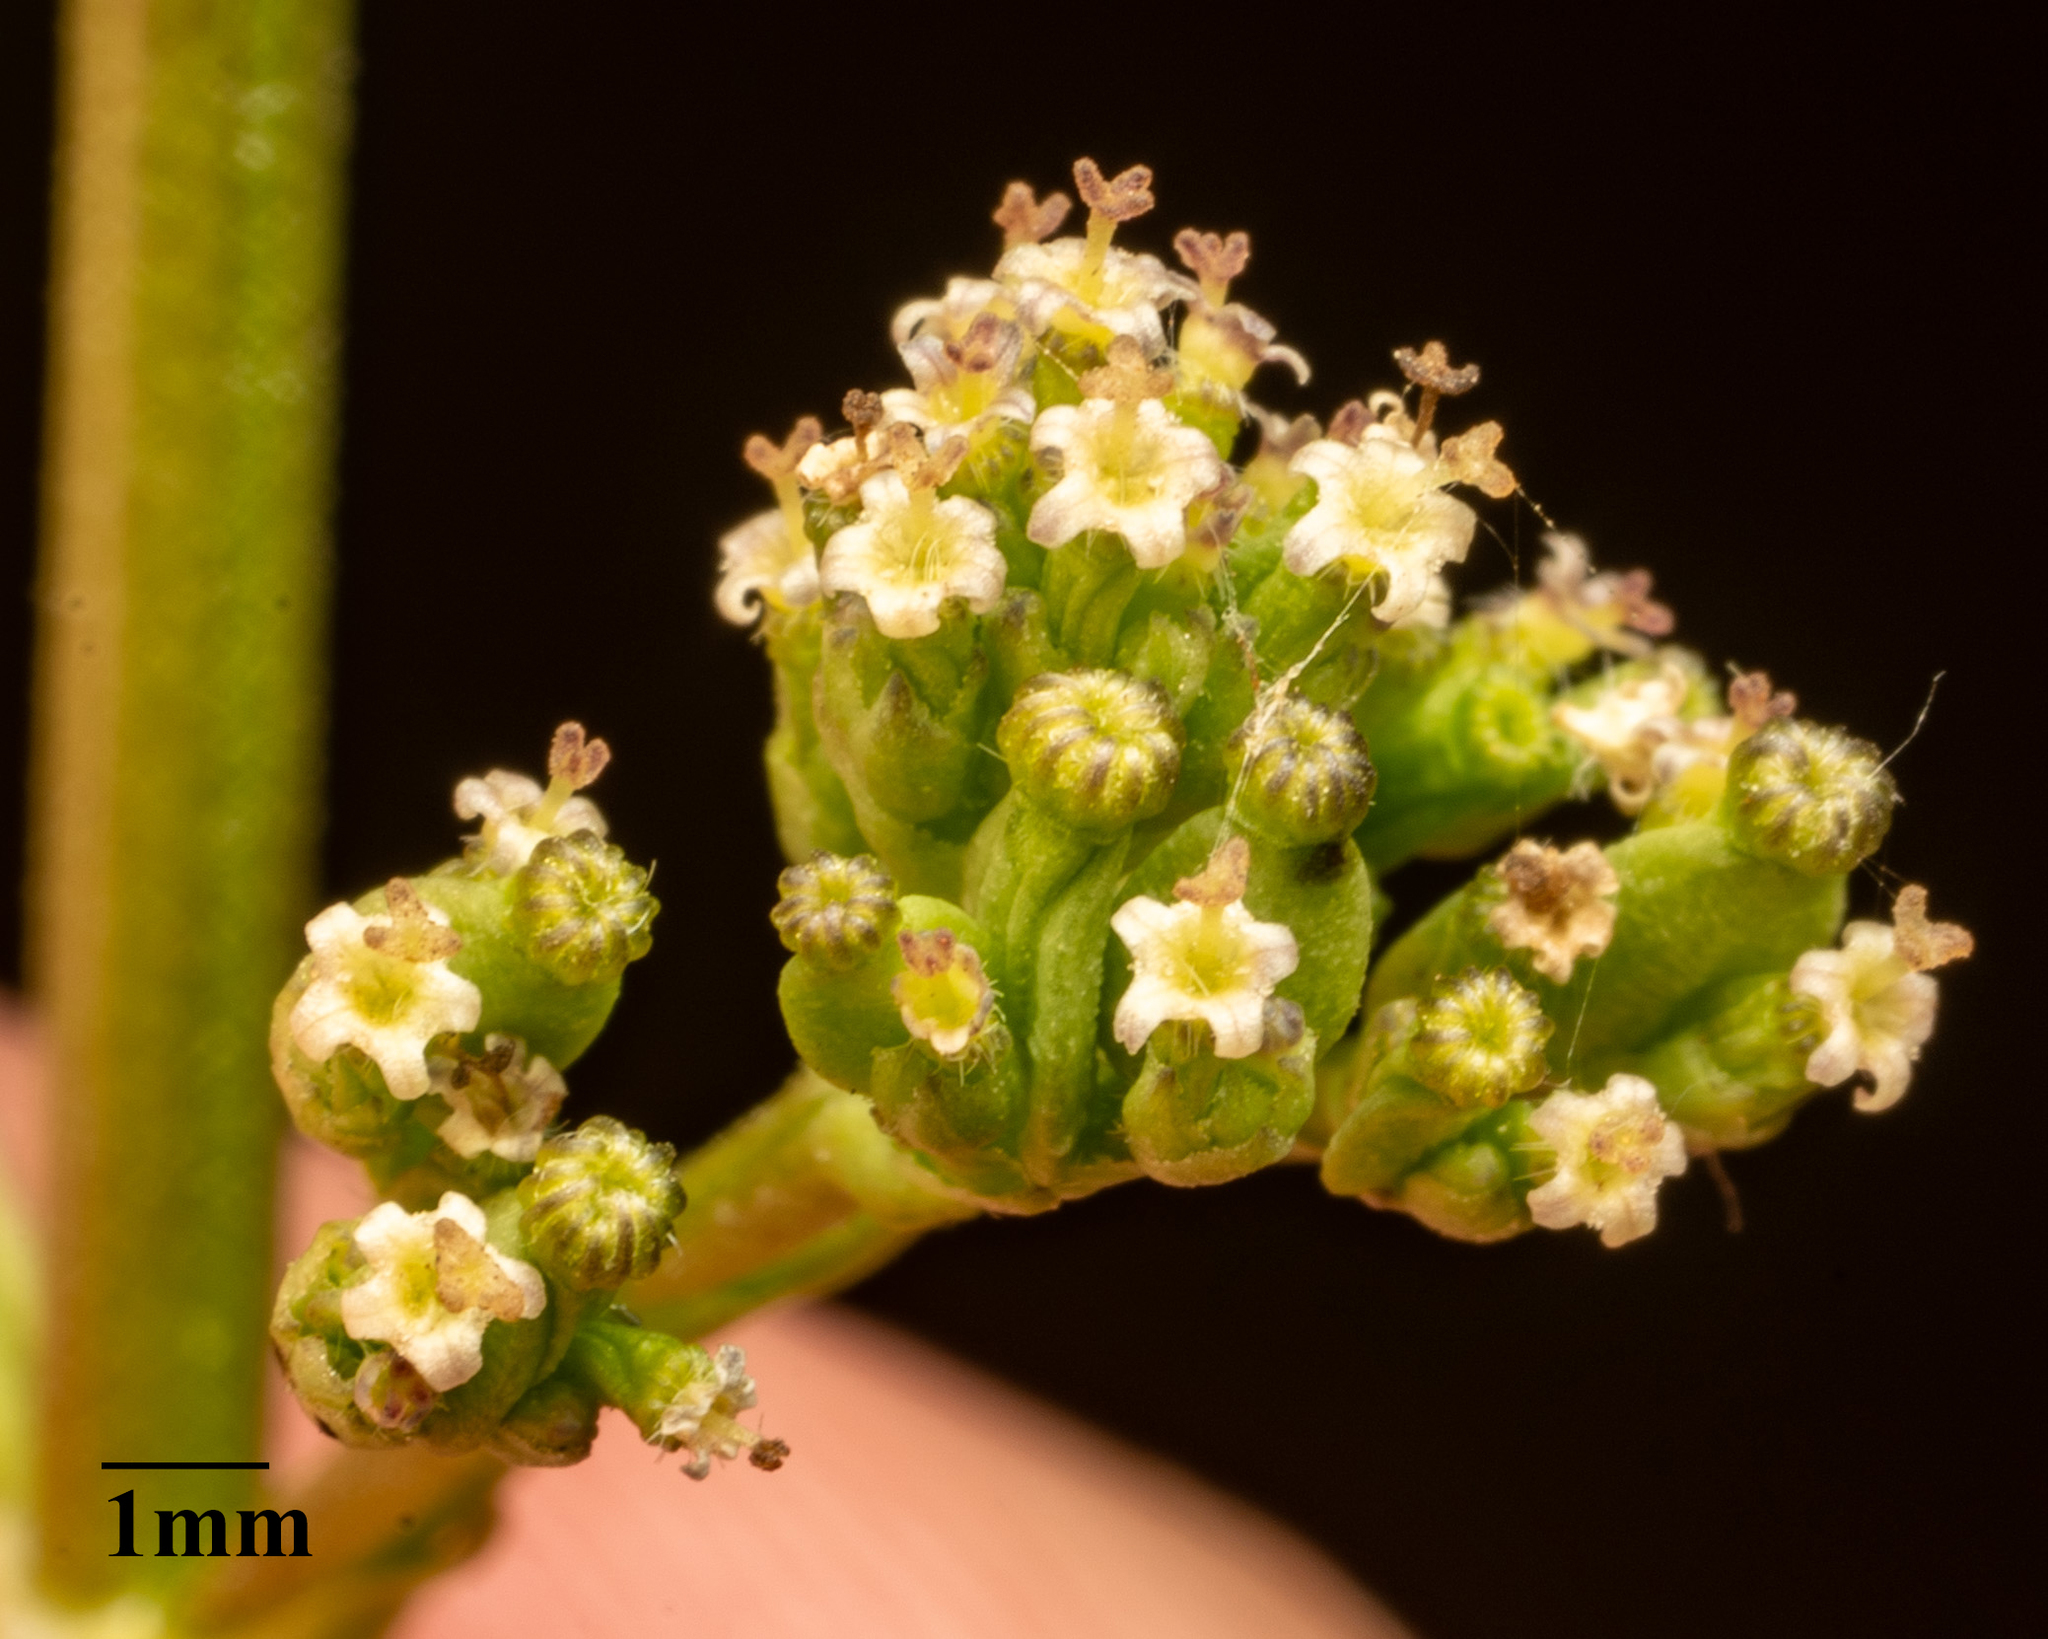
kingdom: Plantae
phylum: Tracheophyta
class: Magnoliopsida
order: Dipsacales
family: Caprifoliaceae
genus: Valeriana
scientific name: Valeriana edulis
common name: Taproot valerian
